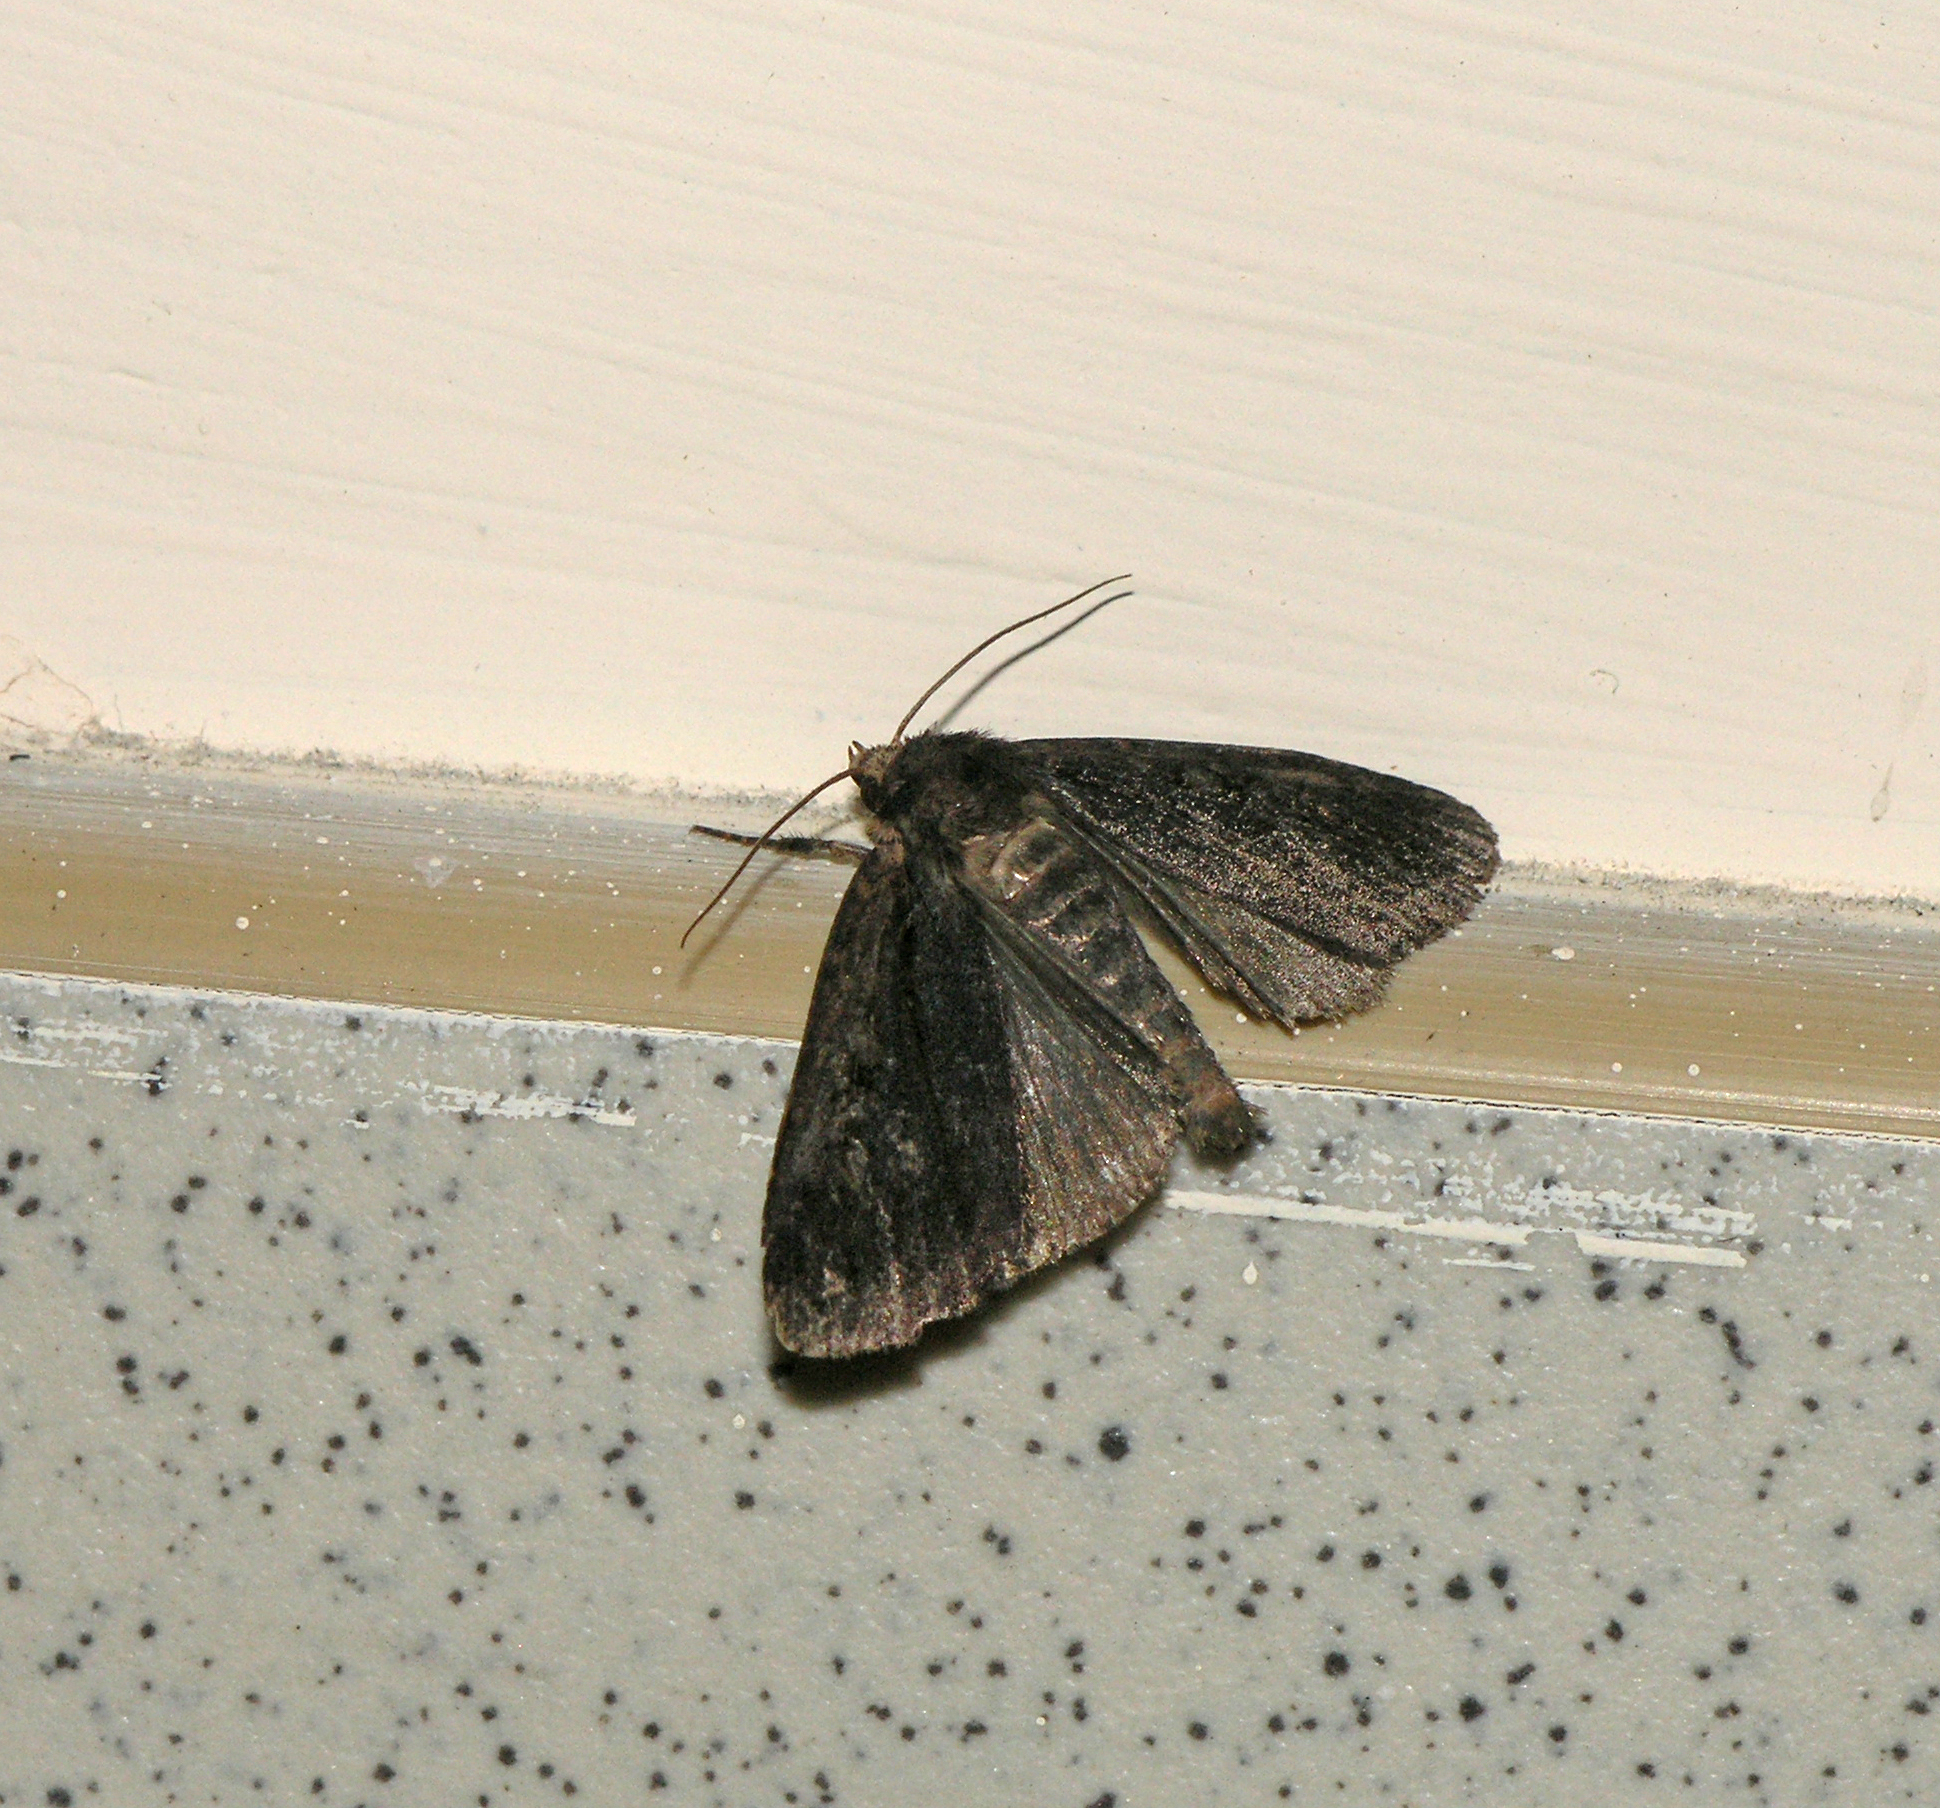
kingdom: Animalia
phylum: Arthropoda
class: Insecta
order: Lepidoptera
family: Noctuidae
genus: Eugraphe
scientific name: Eugraphe sigma
